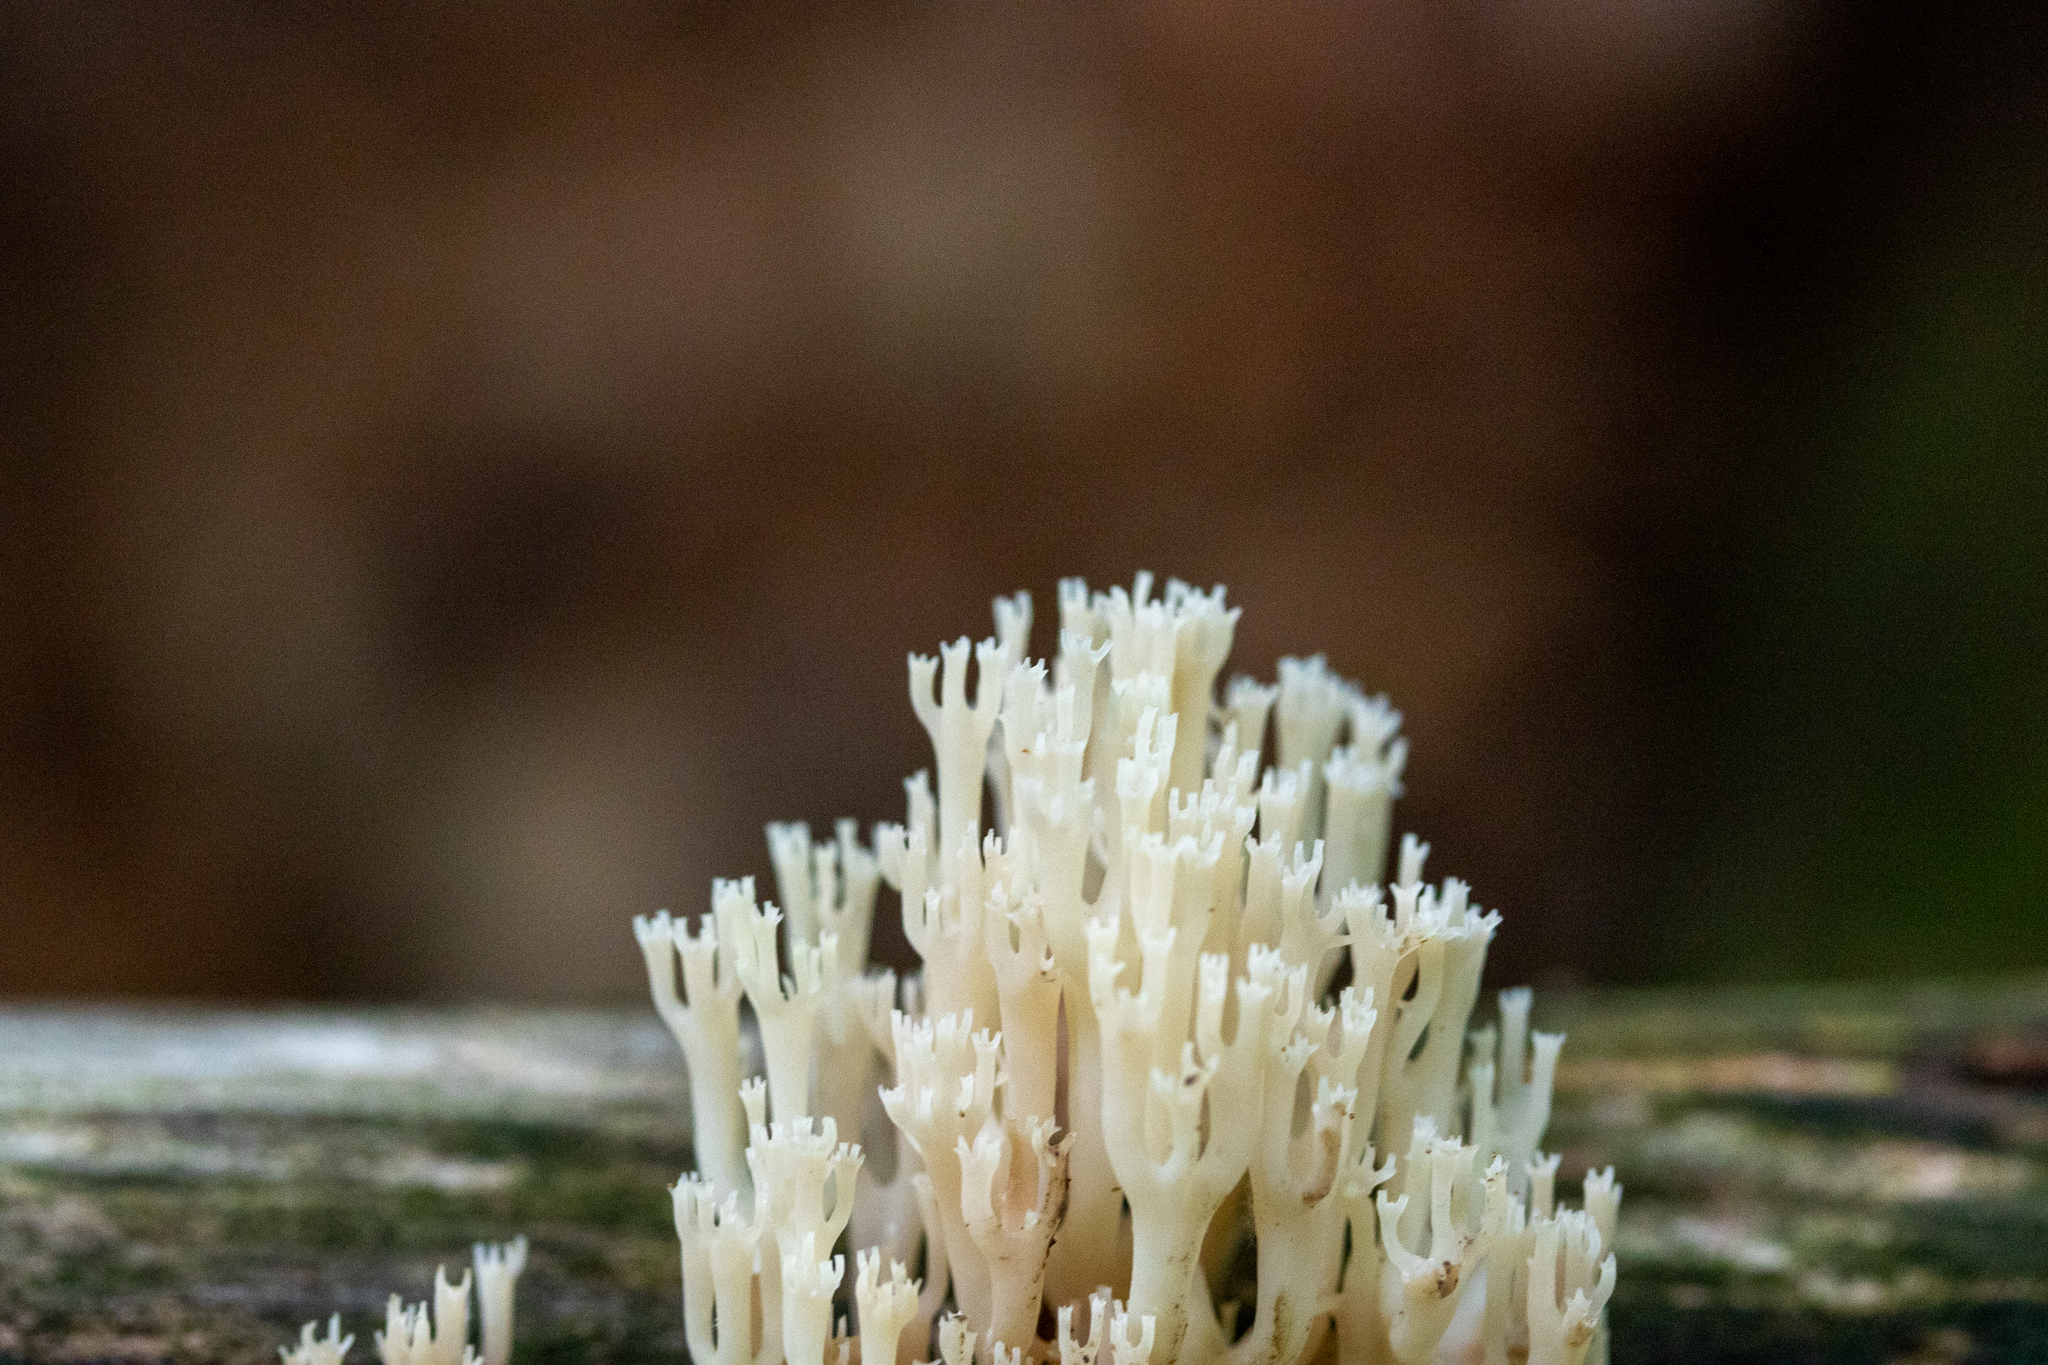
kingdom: Fungi
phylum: Basidiomycota
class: Agaricomycetes
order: Russulales
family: Auriscalpiaceae
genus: Artomyces
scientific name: Artomyces pyxidatus
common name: Crown-tipped coral fungus
